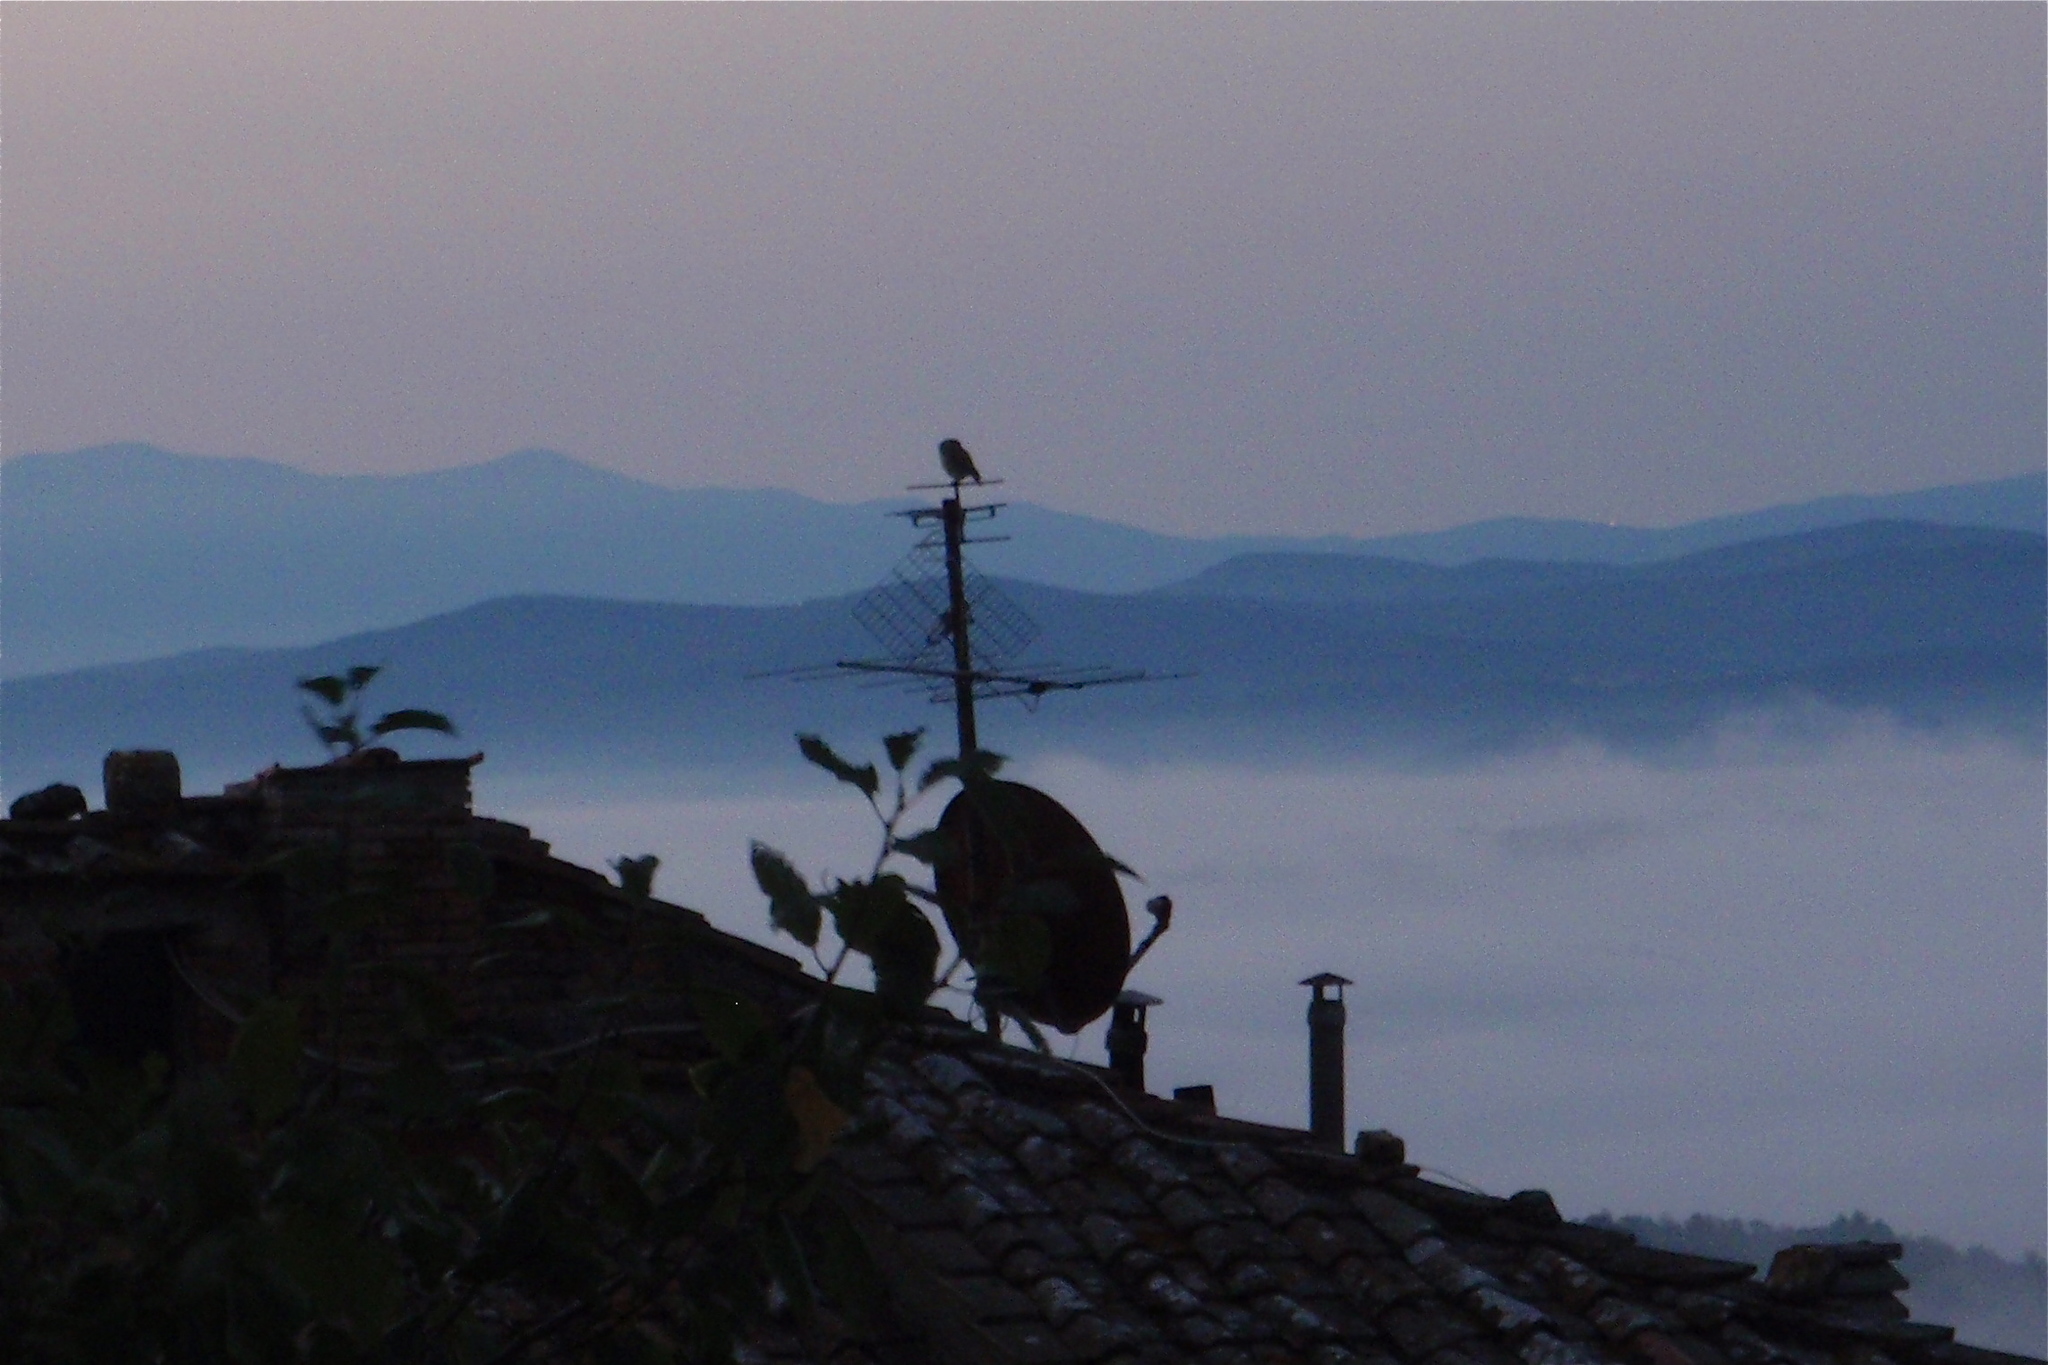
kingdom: Animalia
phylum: Chordata
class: Aves
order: Strigiformes
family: Strigidae
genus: Athene
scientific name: Athene noctua
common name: Little owl
